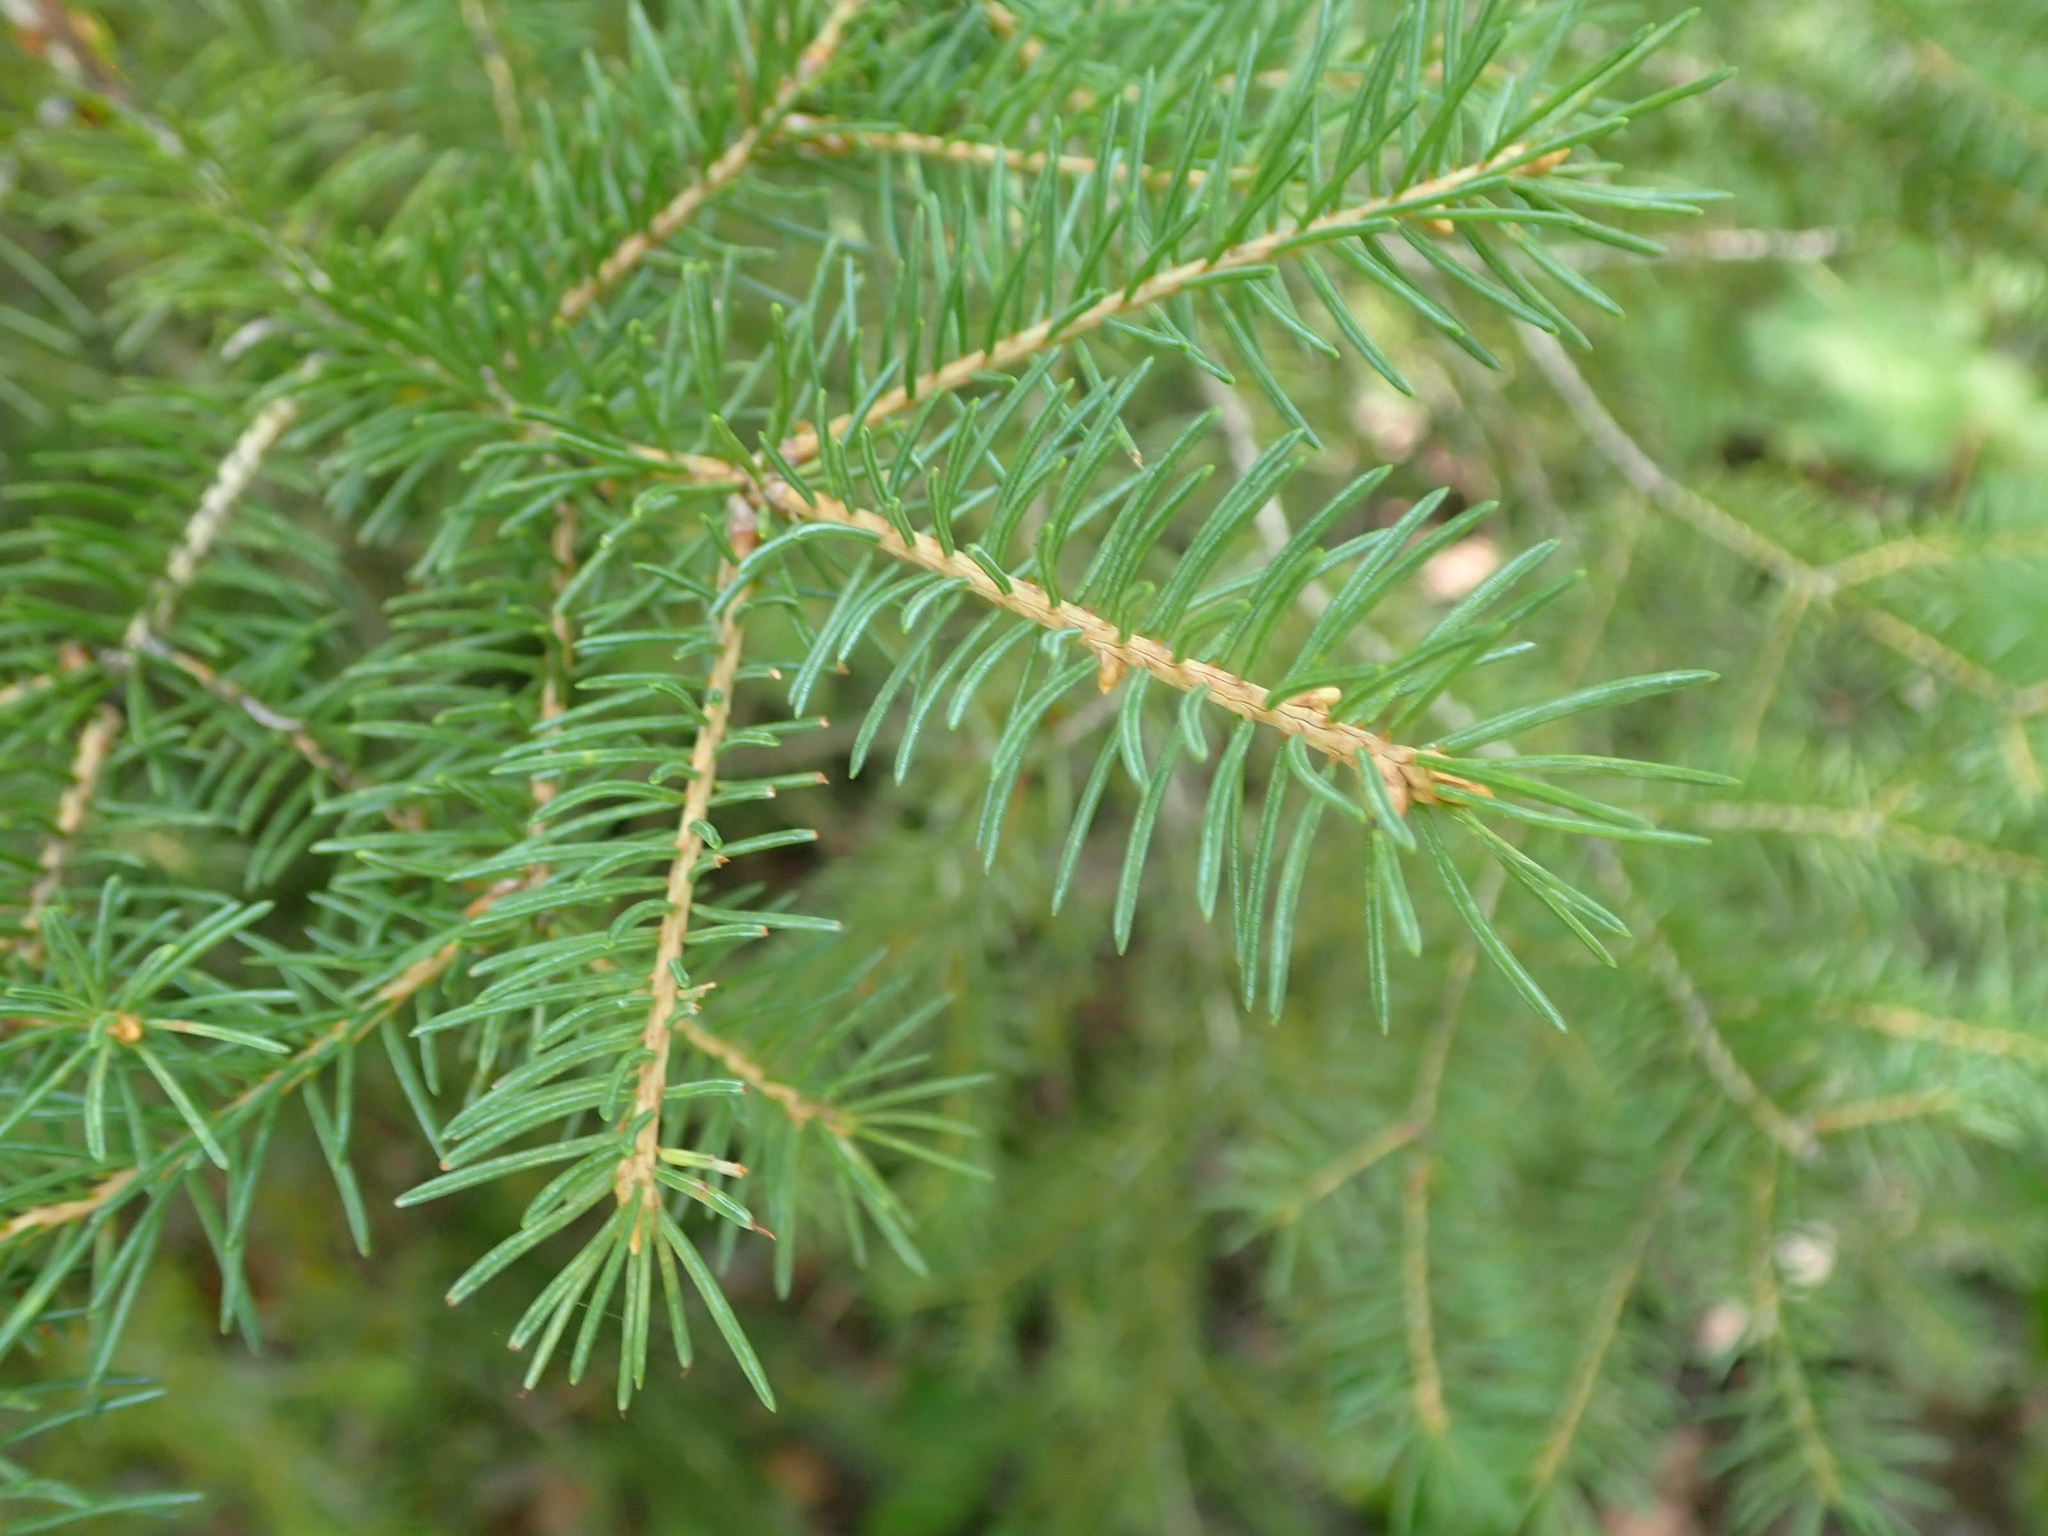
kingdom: Plantae
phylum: Tracheophyta
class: Pinopsida
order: Pinales
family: Pinaceae
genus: Picea
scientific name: Picea glauca
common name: White spruce
